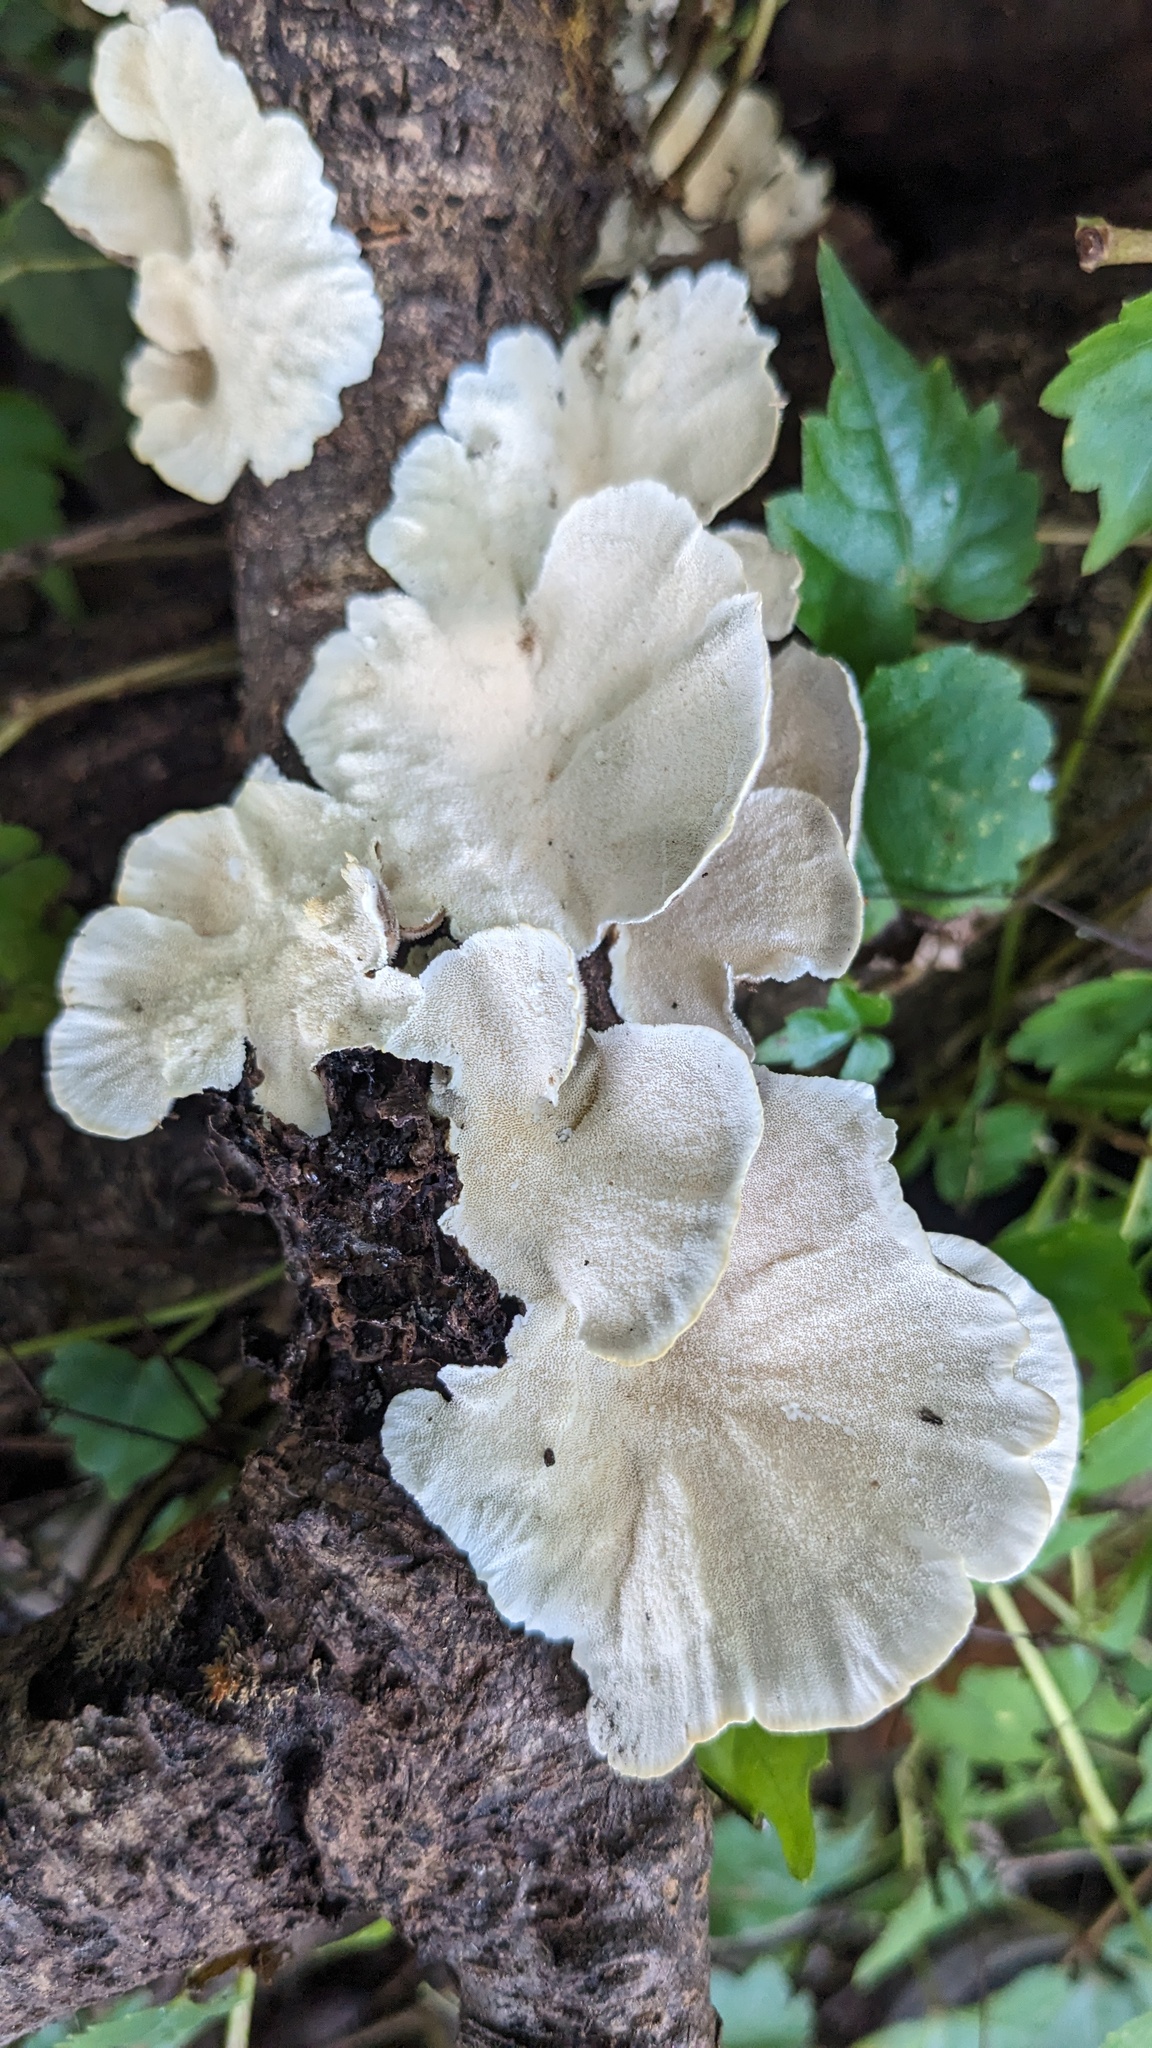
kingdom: Fungi
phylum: Basidiomycota
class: Agaricomycetes
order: Polyporales
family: Polyporaceae
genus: Trametes
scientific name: Trametes versicolor
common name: Turkeytail
